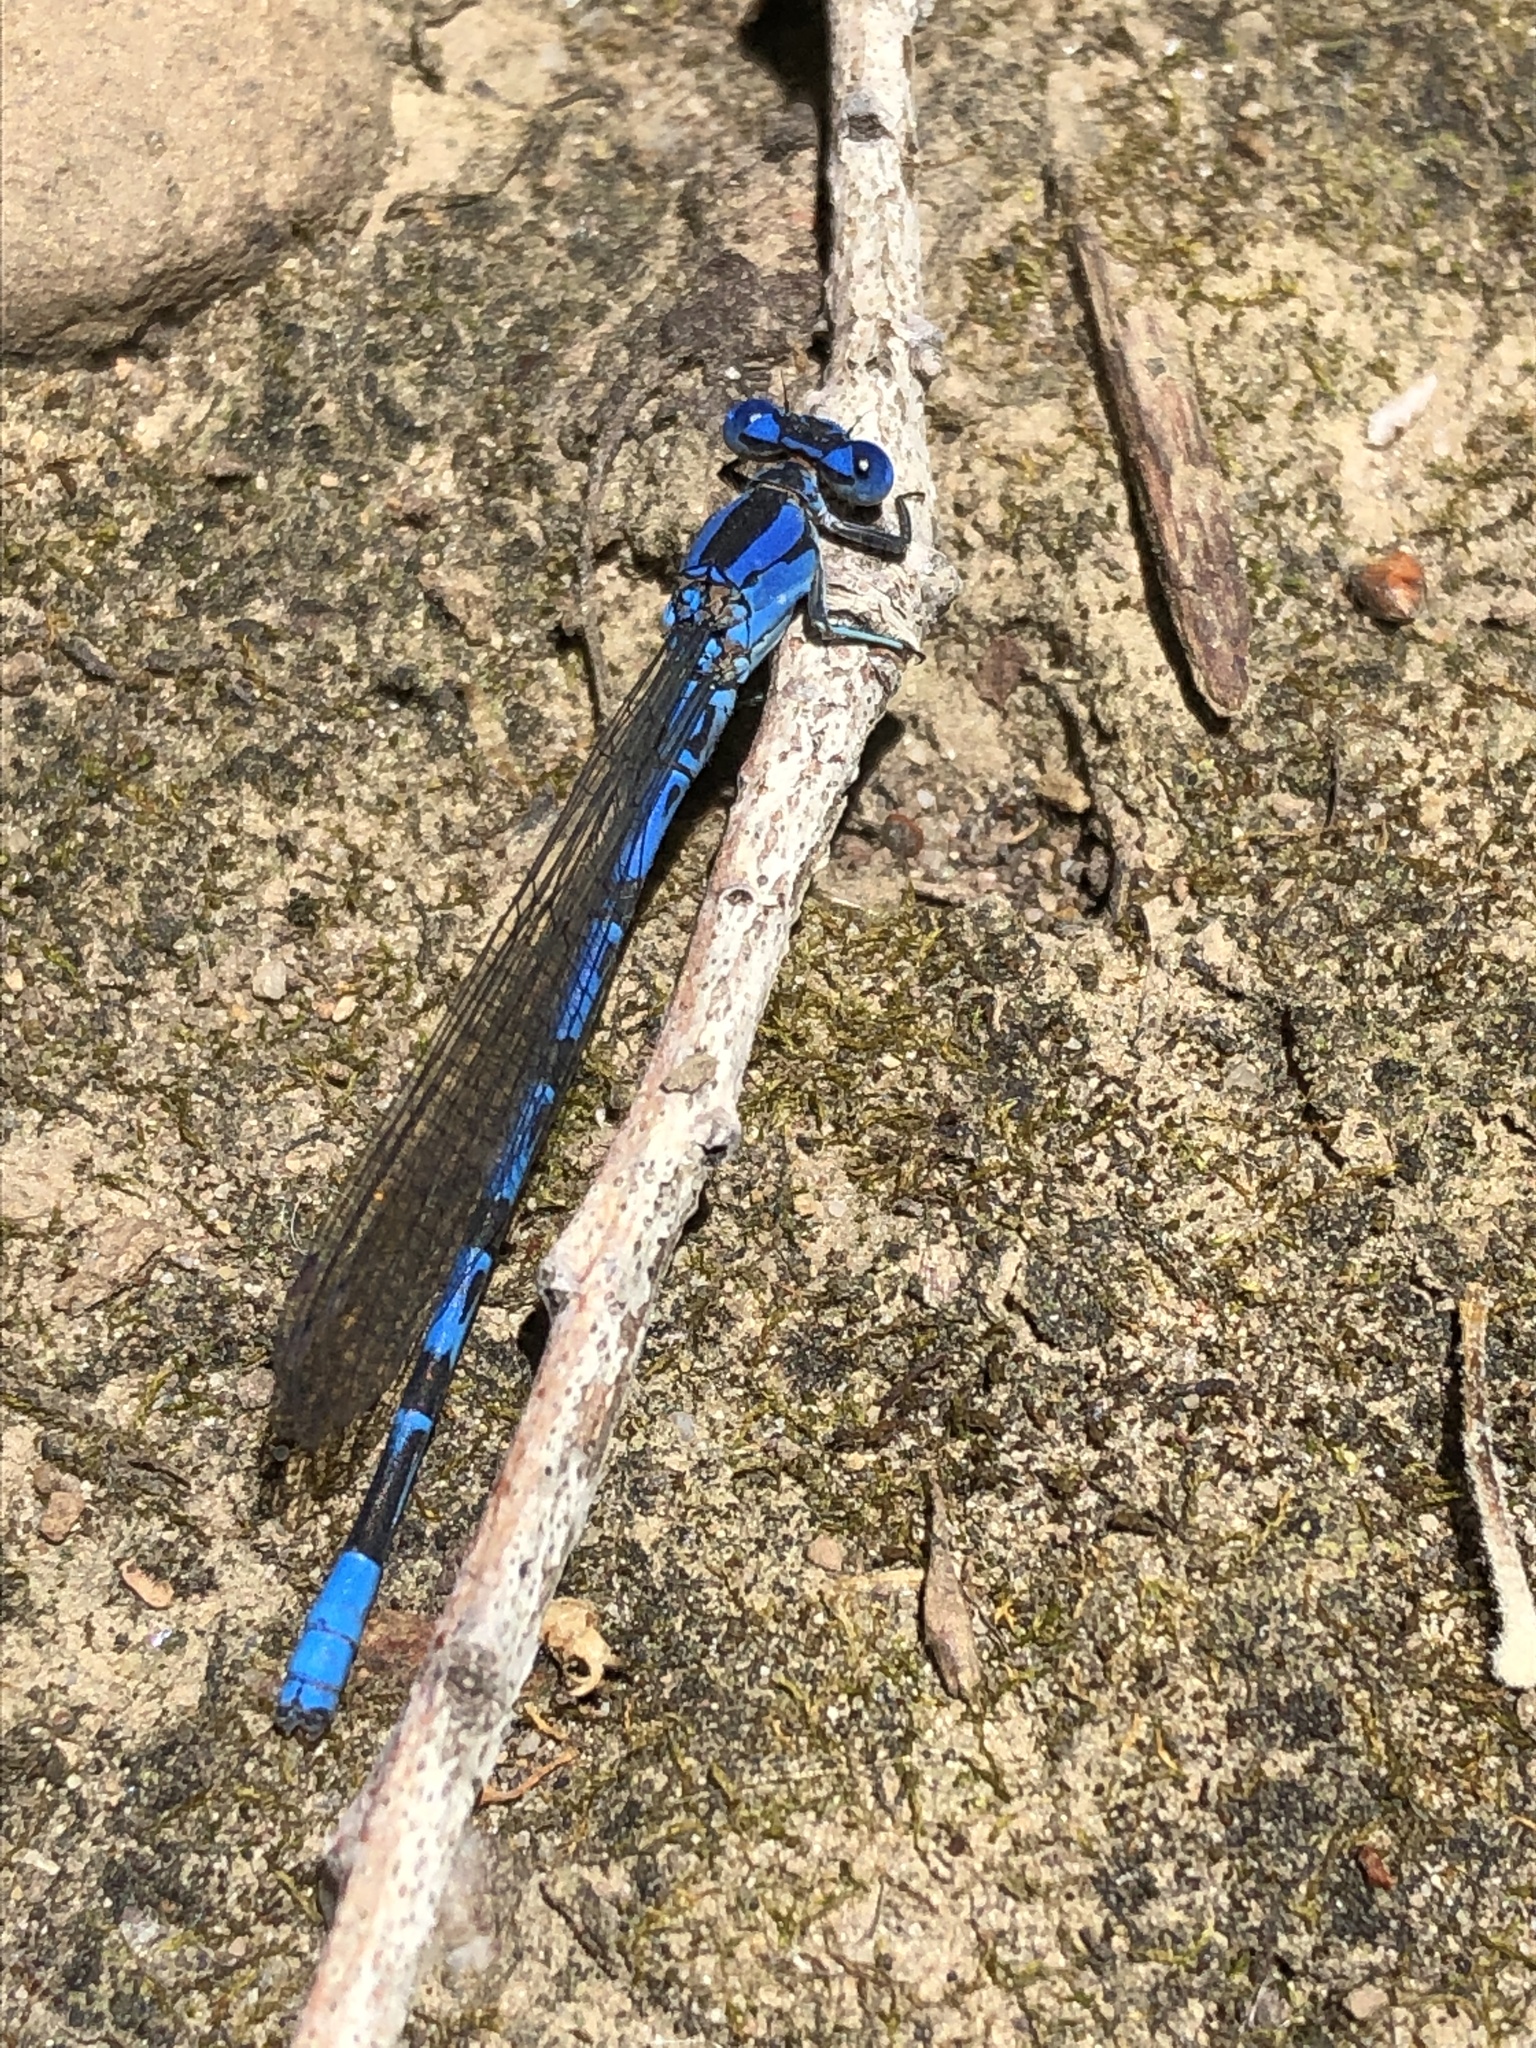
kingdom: Animalia
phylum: Arthropoda
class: Insecta
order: Odonata
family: Coenagrionidae
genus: Argia
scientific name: Argia vivida
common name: Vivid dancer
